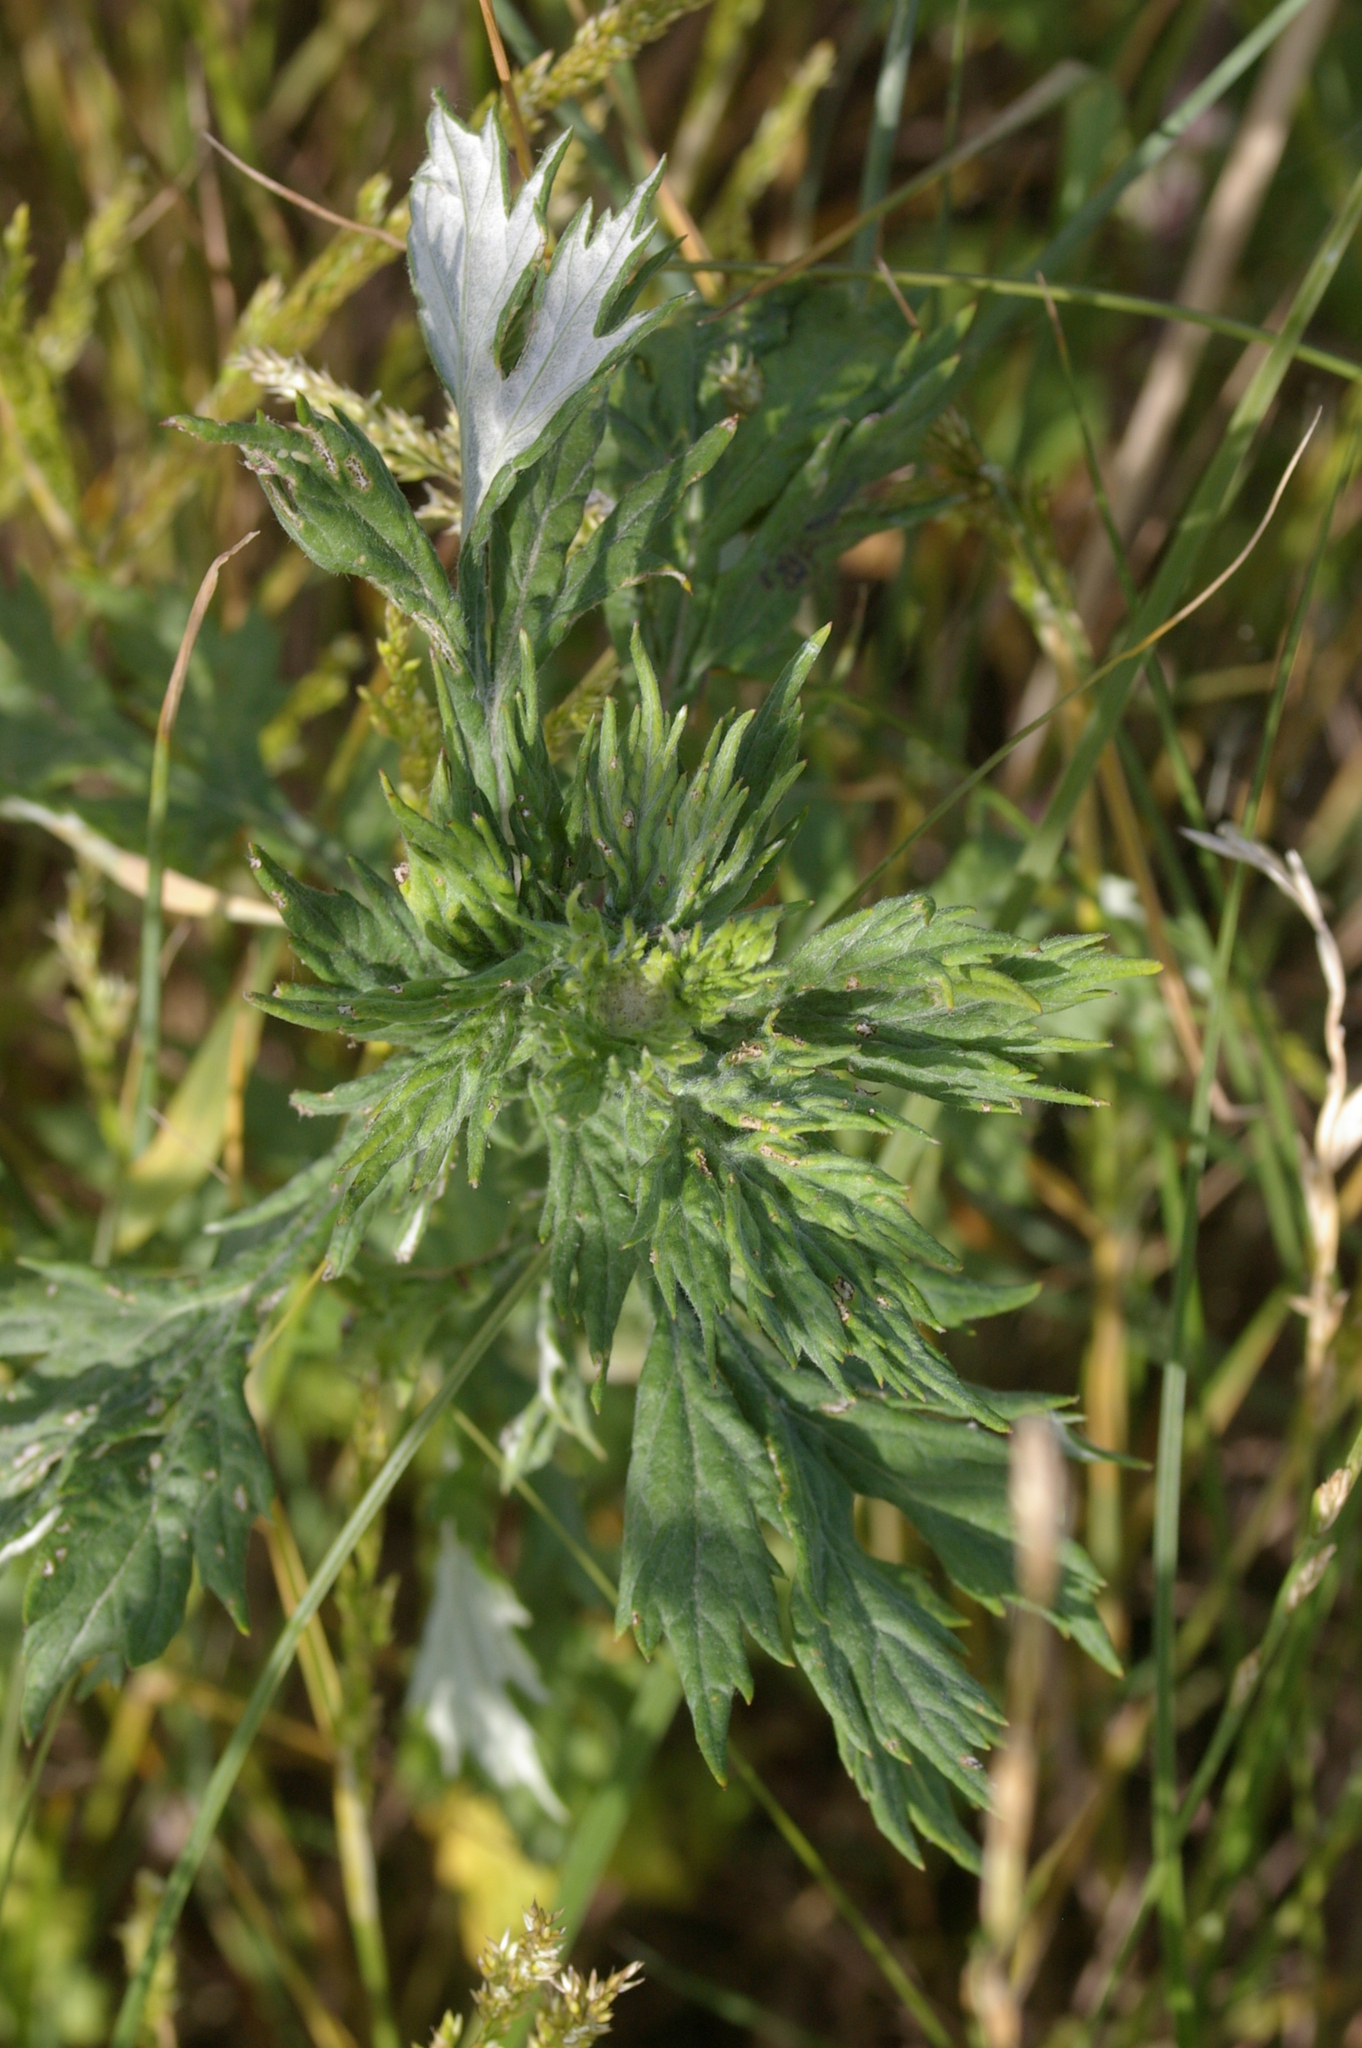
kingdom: Plantae
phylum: Tracheophyta
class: Magnoliopsida
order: Asterales
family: Asteraceae
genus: Artemisia
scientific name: Artemisia vulgaris
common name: Mugwort
